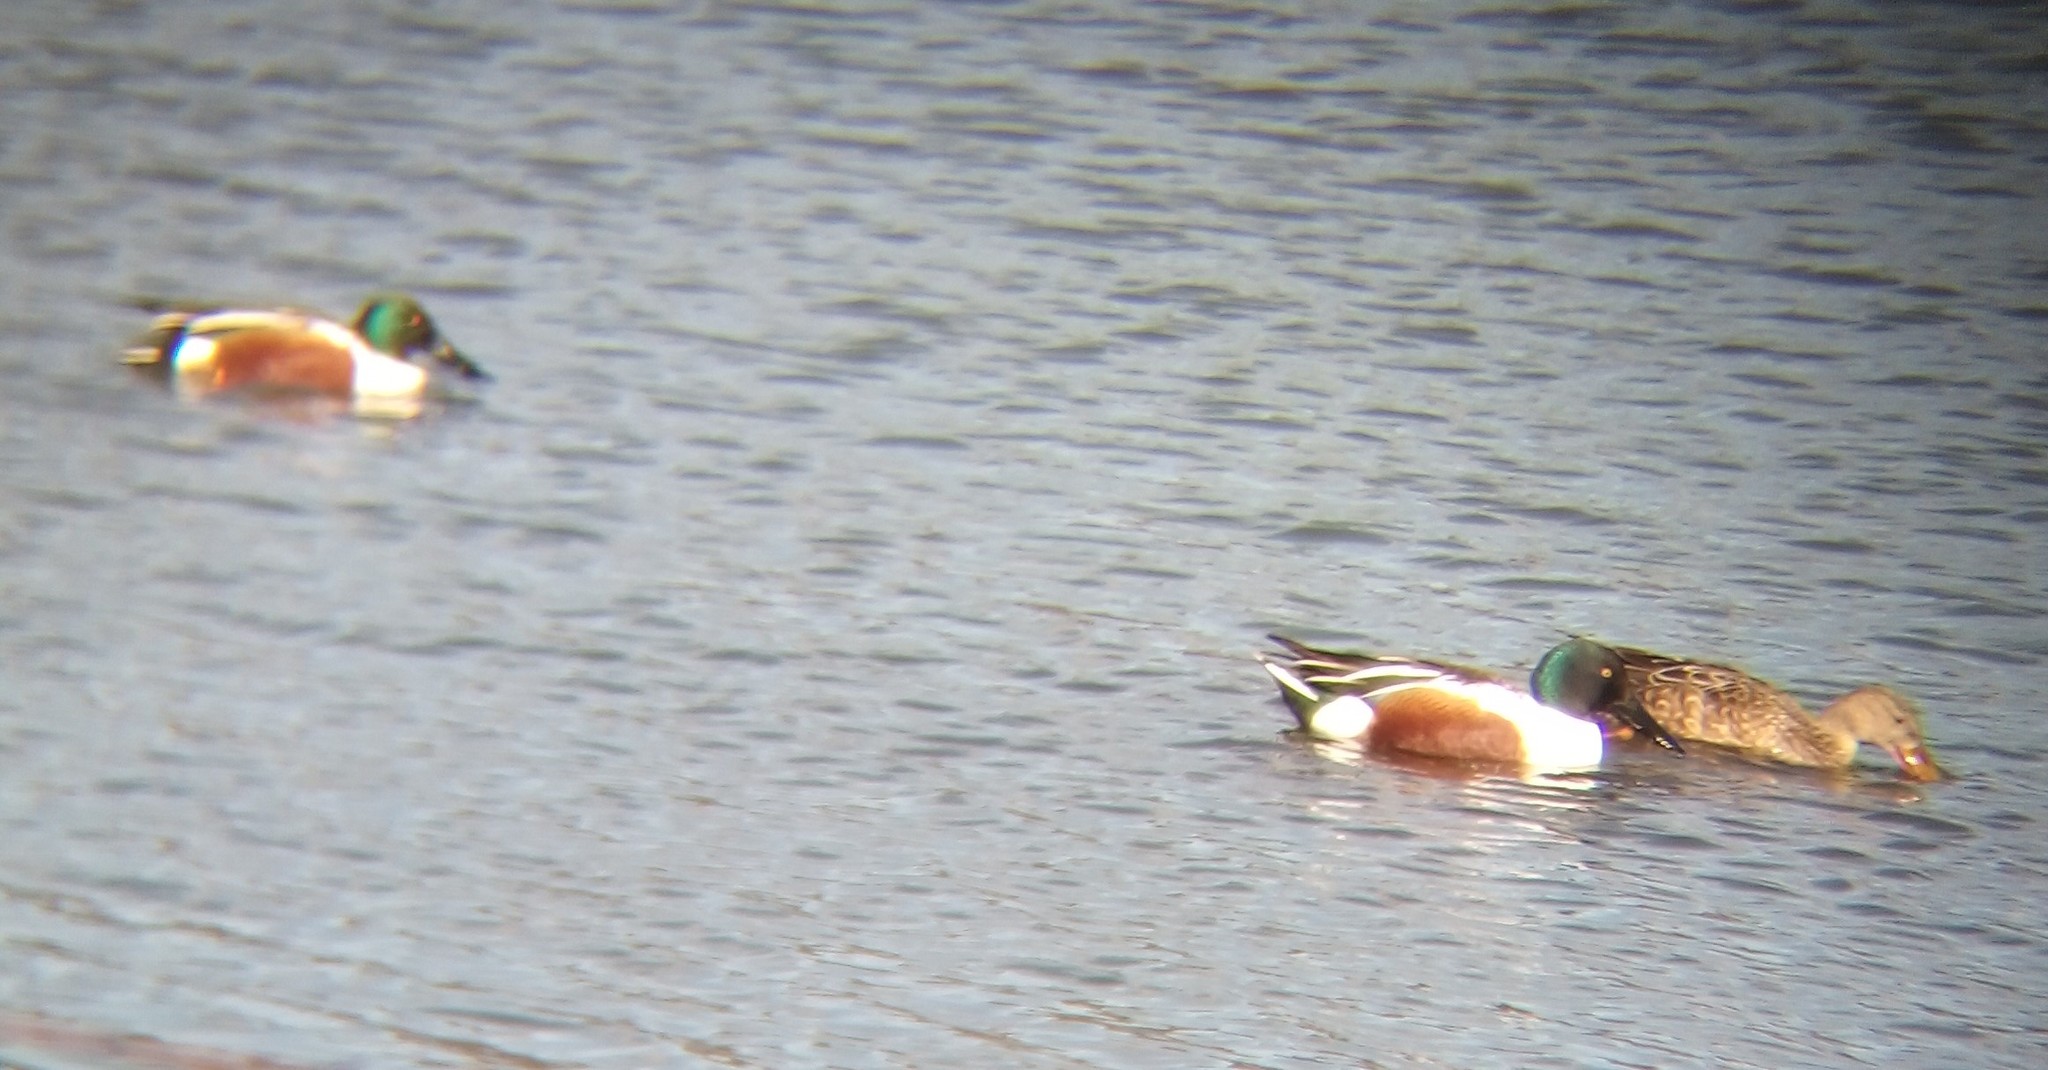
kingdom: Animalia
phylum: Chordata
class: Aves
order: Anseriformes
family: Anatidae
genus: Spatula
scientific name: Spatula clypeata
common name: Northern shoveler
